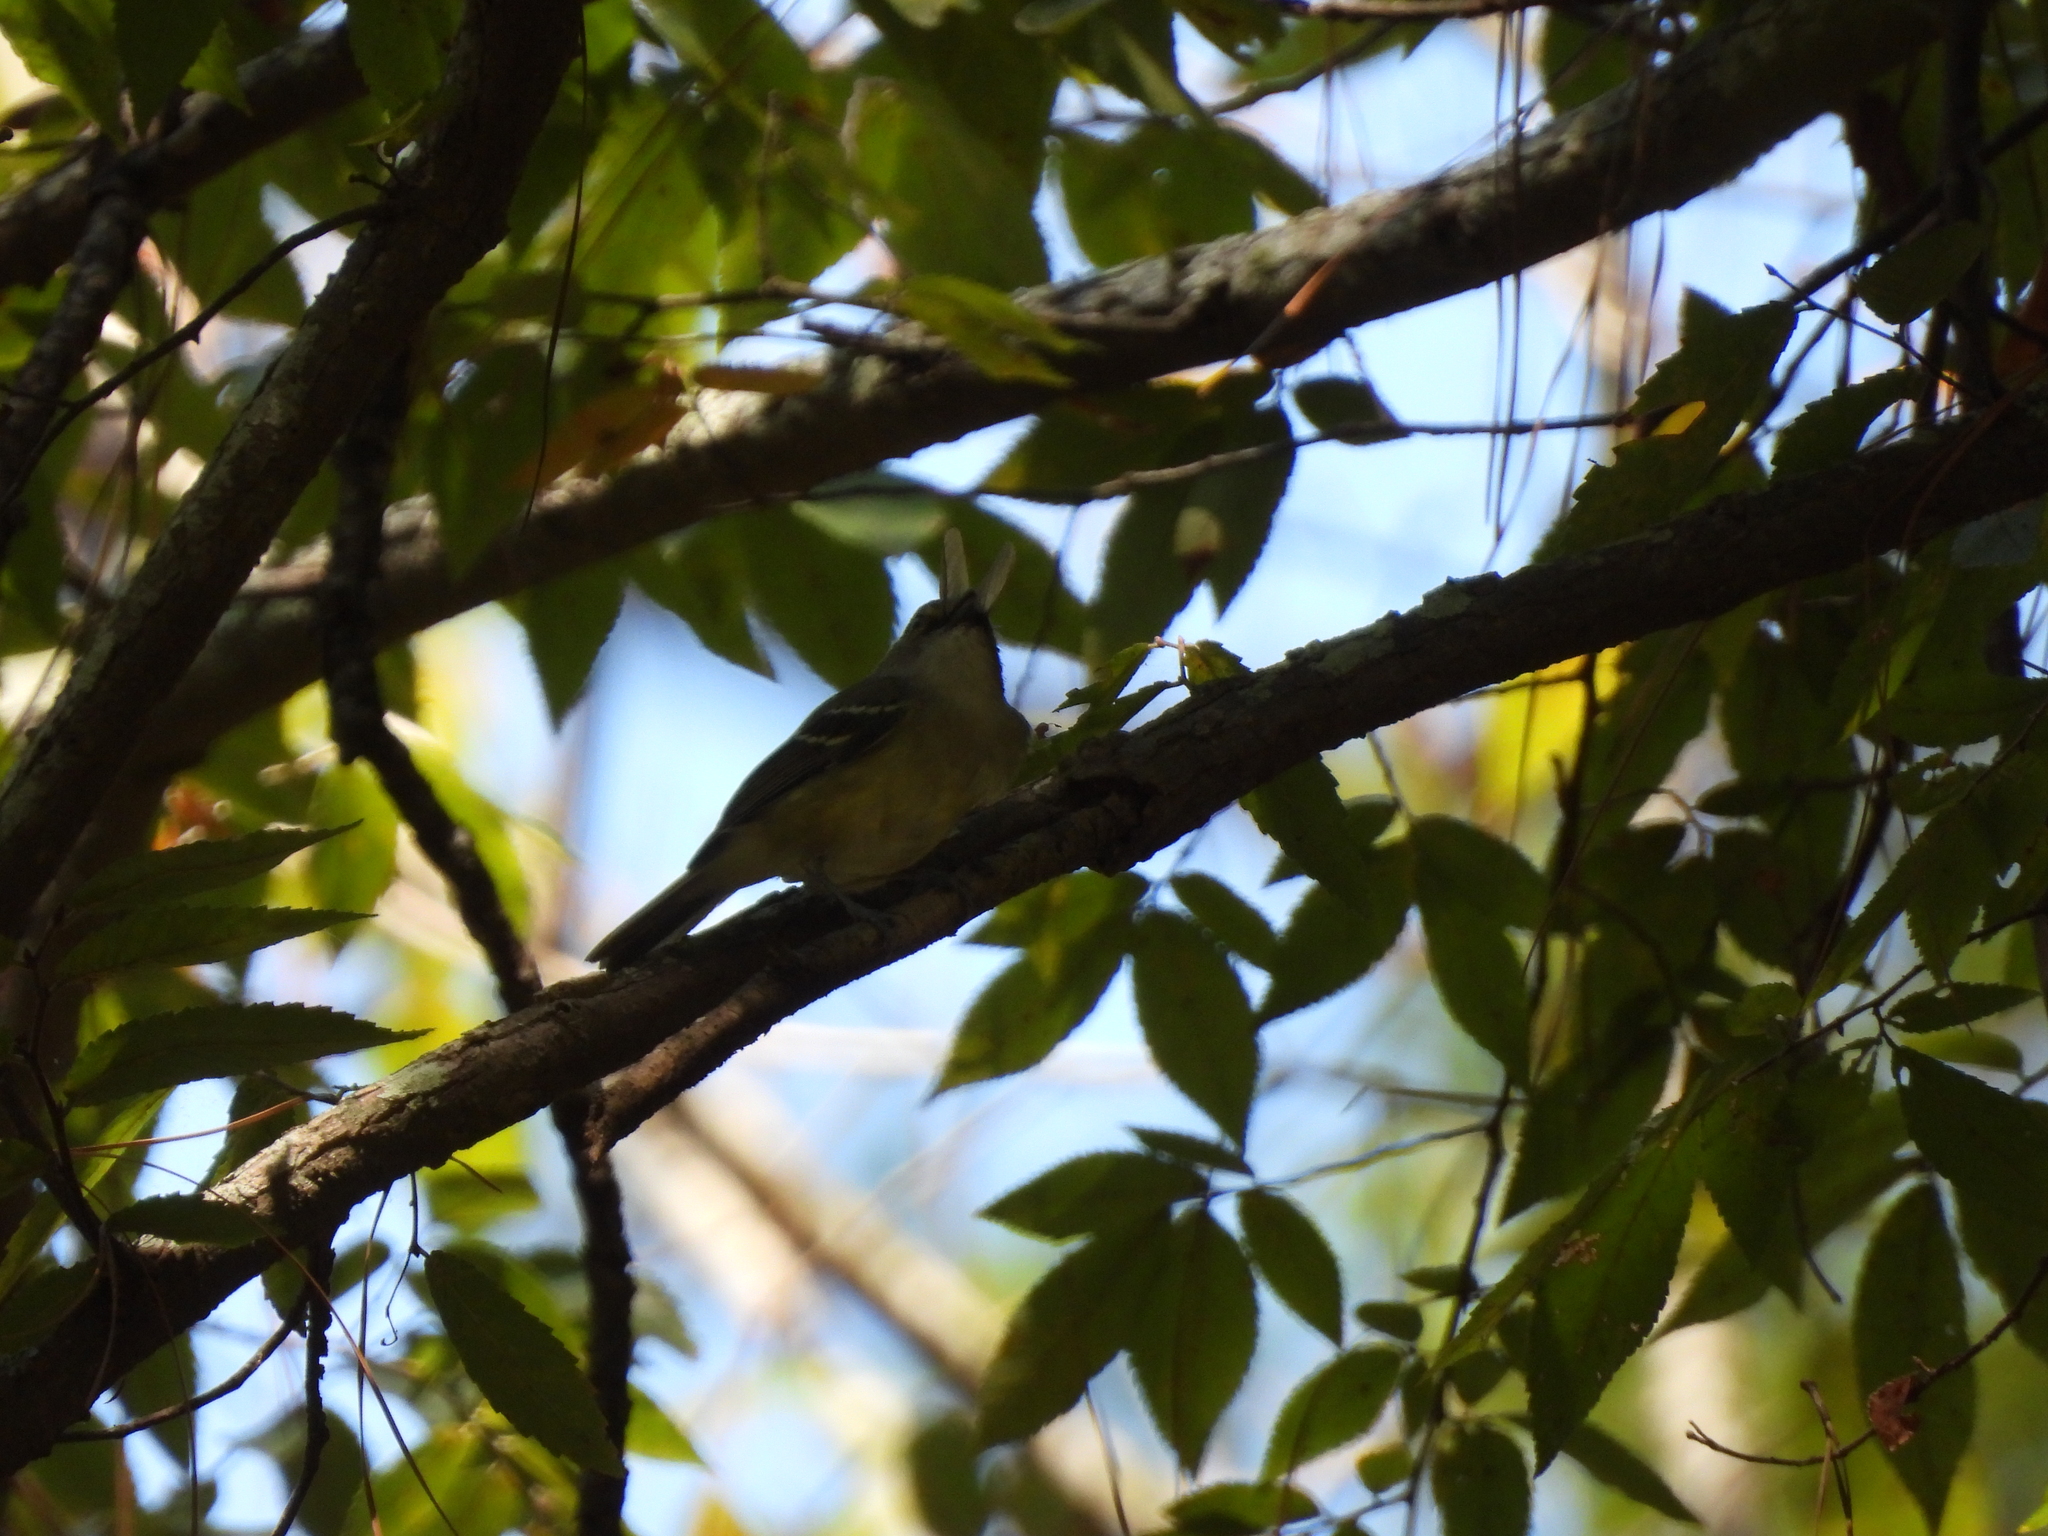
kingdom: Animalia
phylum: Chordata
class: Aves
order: Passeriformes
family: Vireonidae
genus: Vireo
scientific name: Vireo griseus
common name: White-eyed vireo
